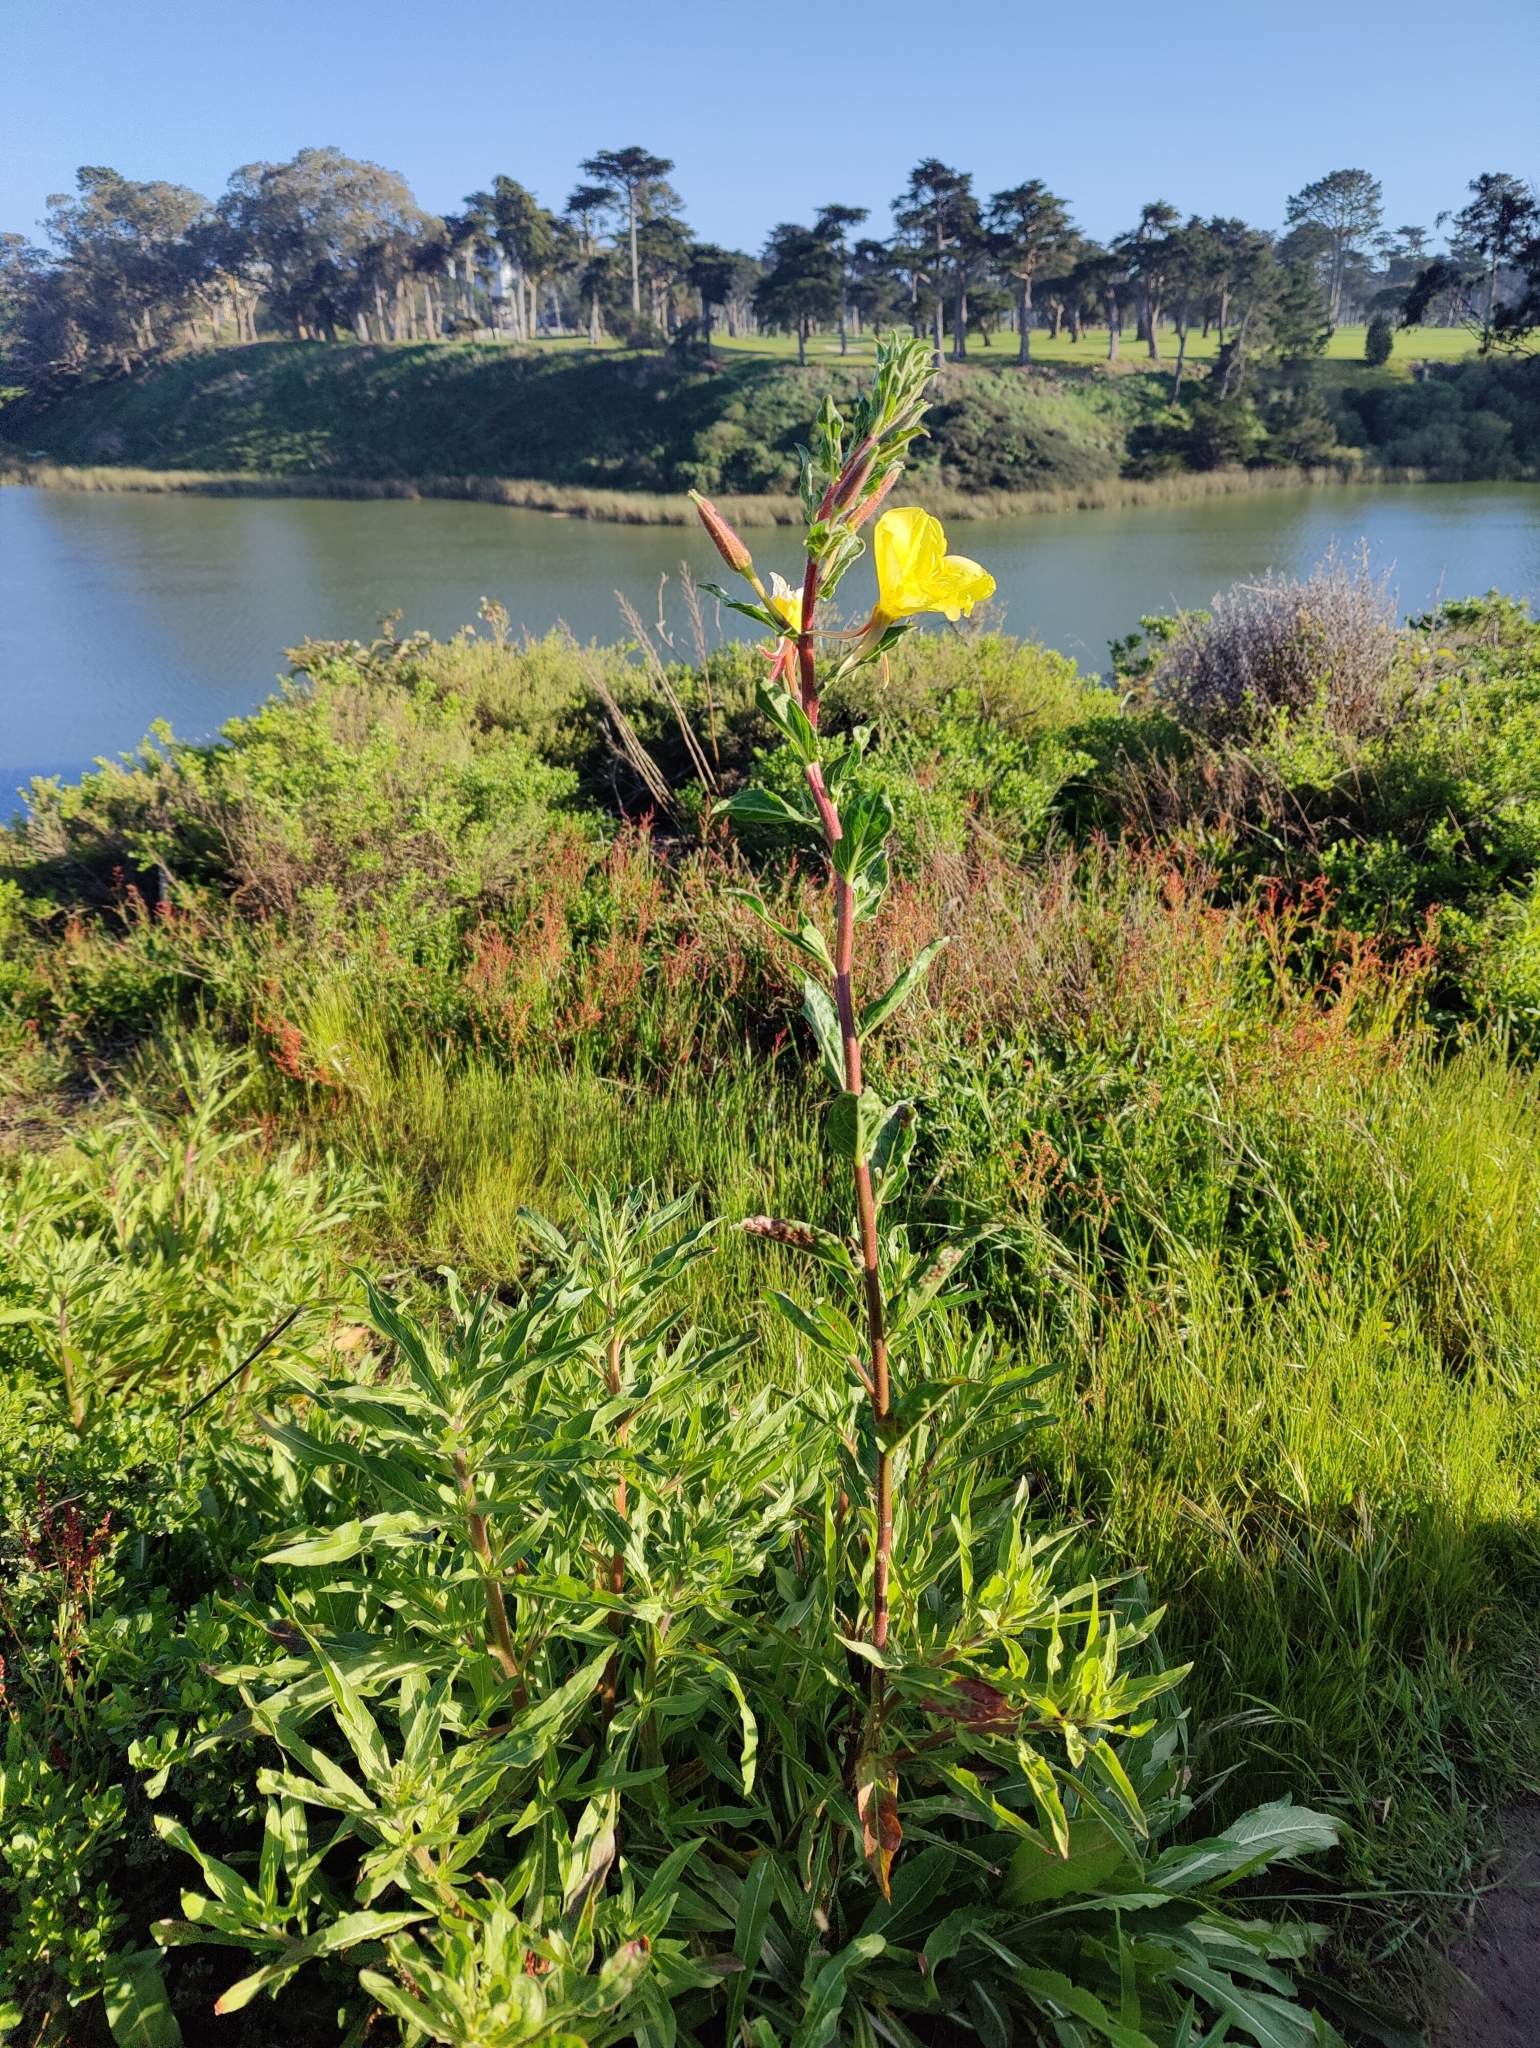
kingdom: Plantae
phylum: Tracheophyta
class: Magnoliopsida
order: Myrtales
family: Onagraceae
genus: Oenothera
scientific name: Oenothera elata
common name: Hooker's evening-primrose
